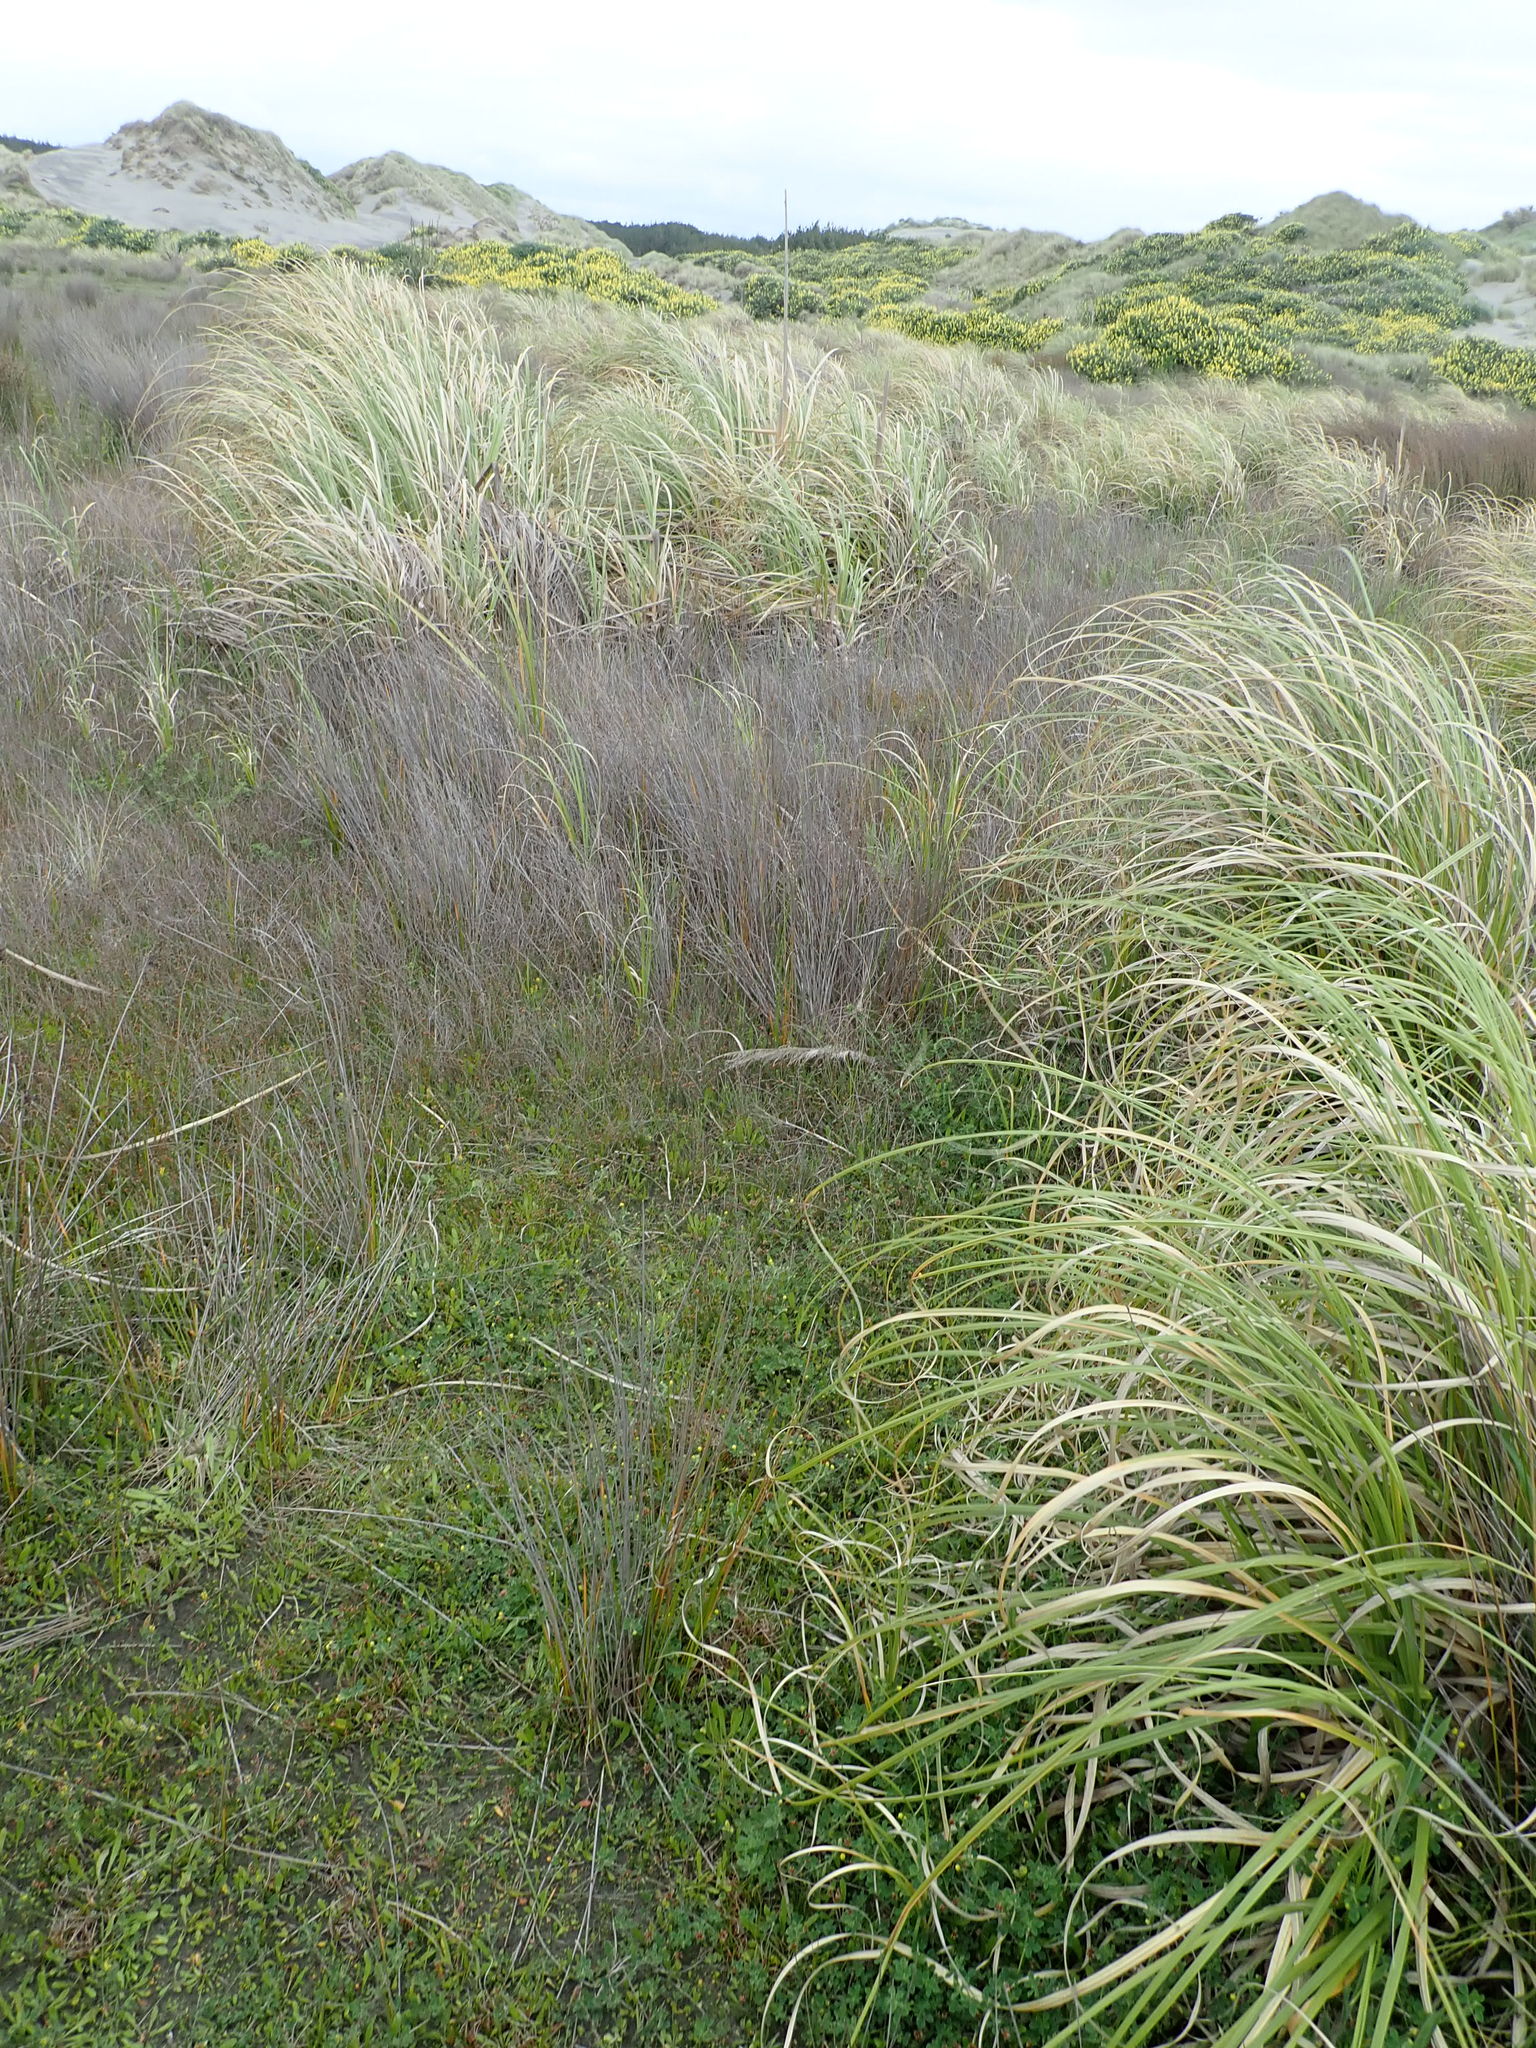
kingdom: Plantae
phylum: Tracheophyta
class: Liliopsida
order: Poales
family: Poaceae
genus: Cortaderia
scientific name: Cortaderia selloana
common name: Uruguayan pampas grass
